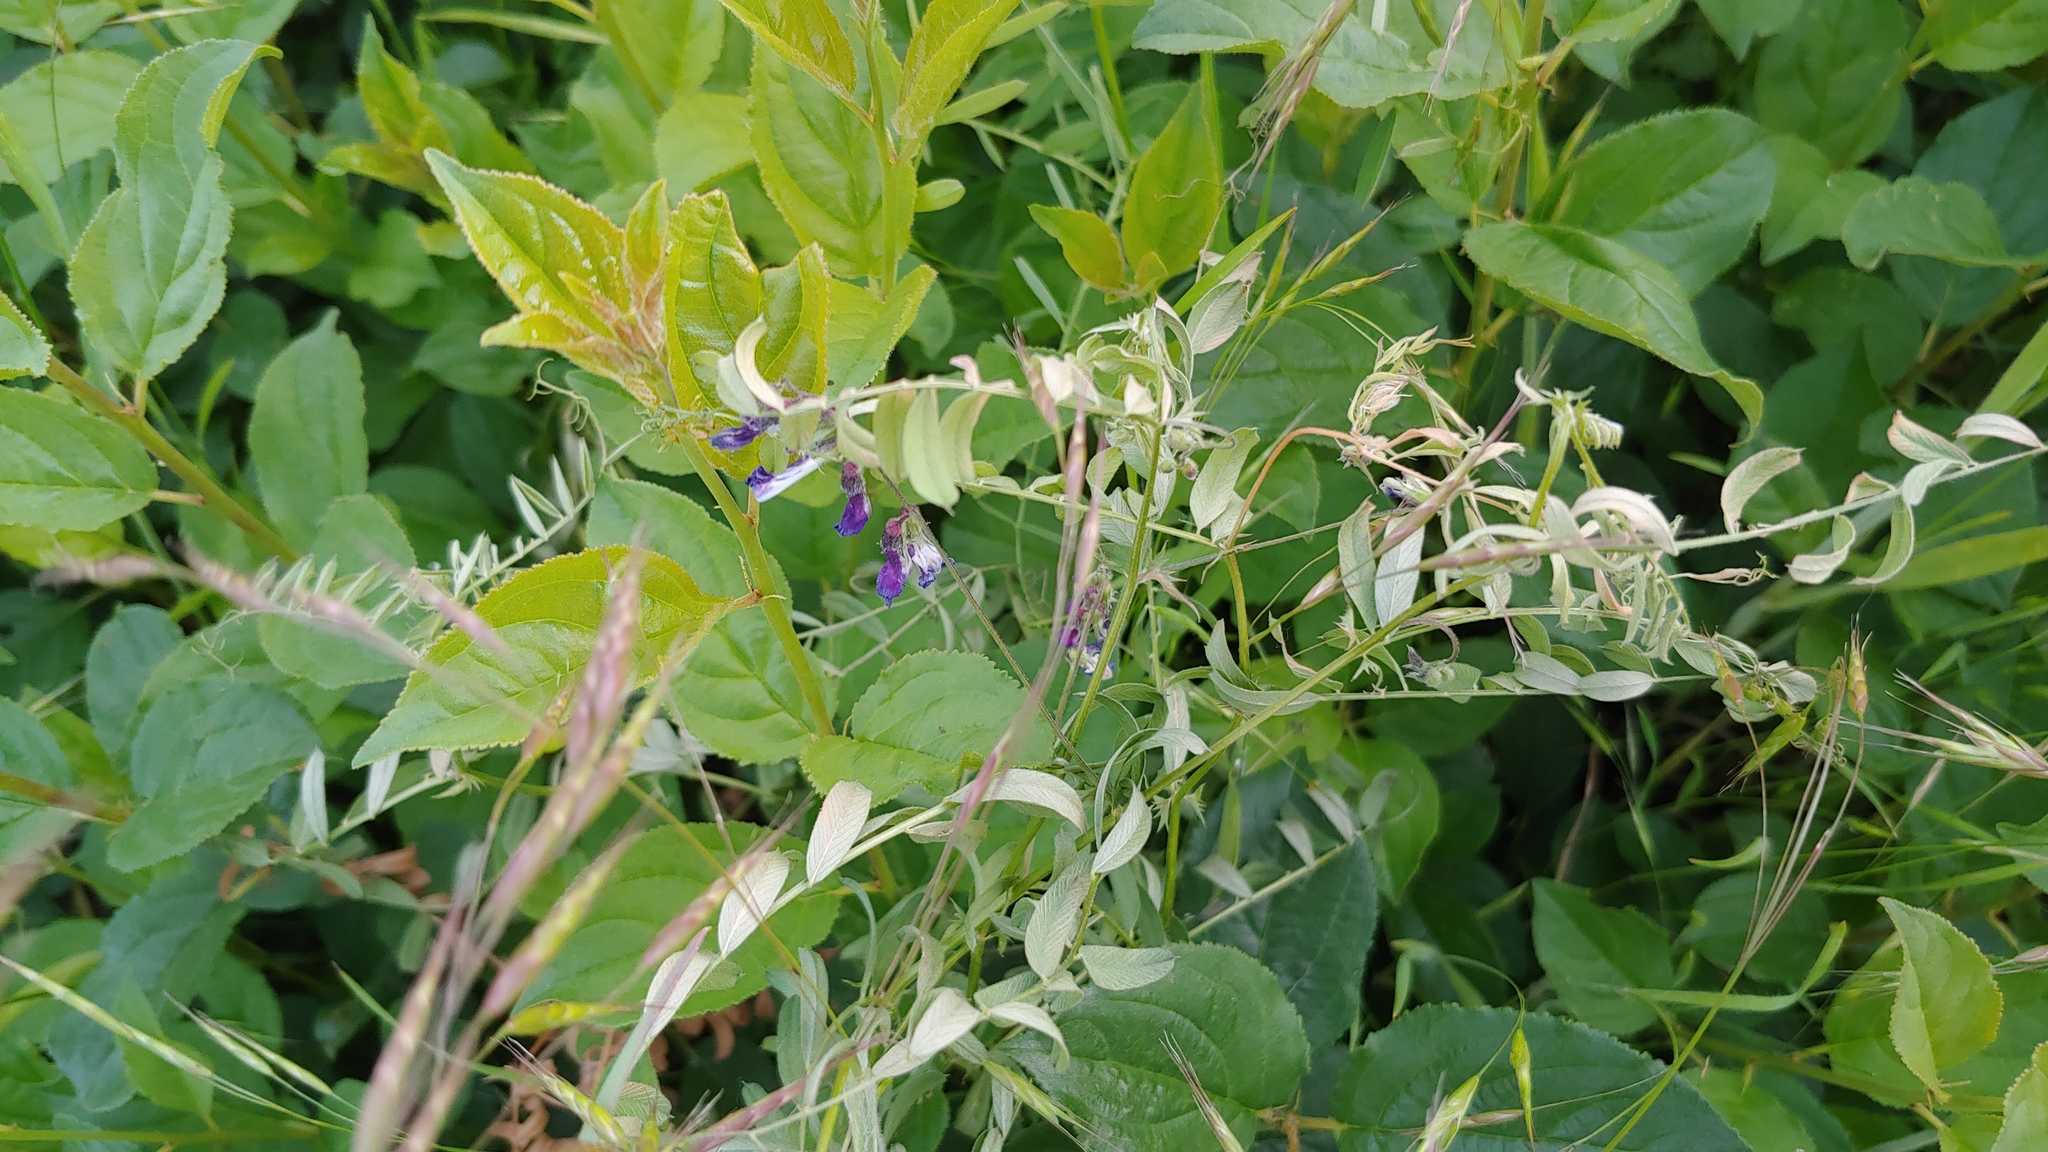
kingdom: Plantae
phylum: Tracheophyta
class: Magnoliopsida
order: Fabales
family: Fabaceae
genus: Vicia
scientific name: Vicia villosa
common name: Fodder vetch
